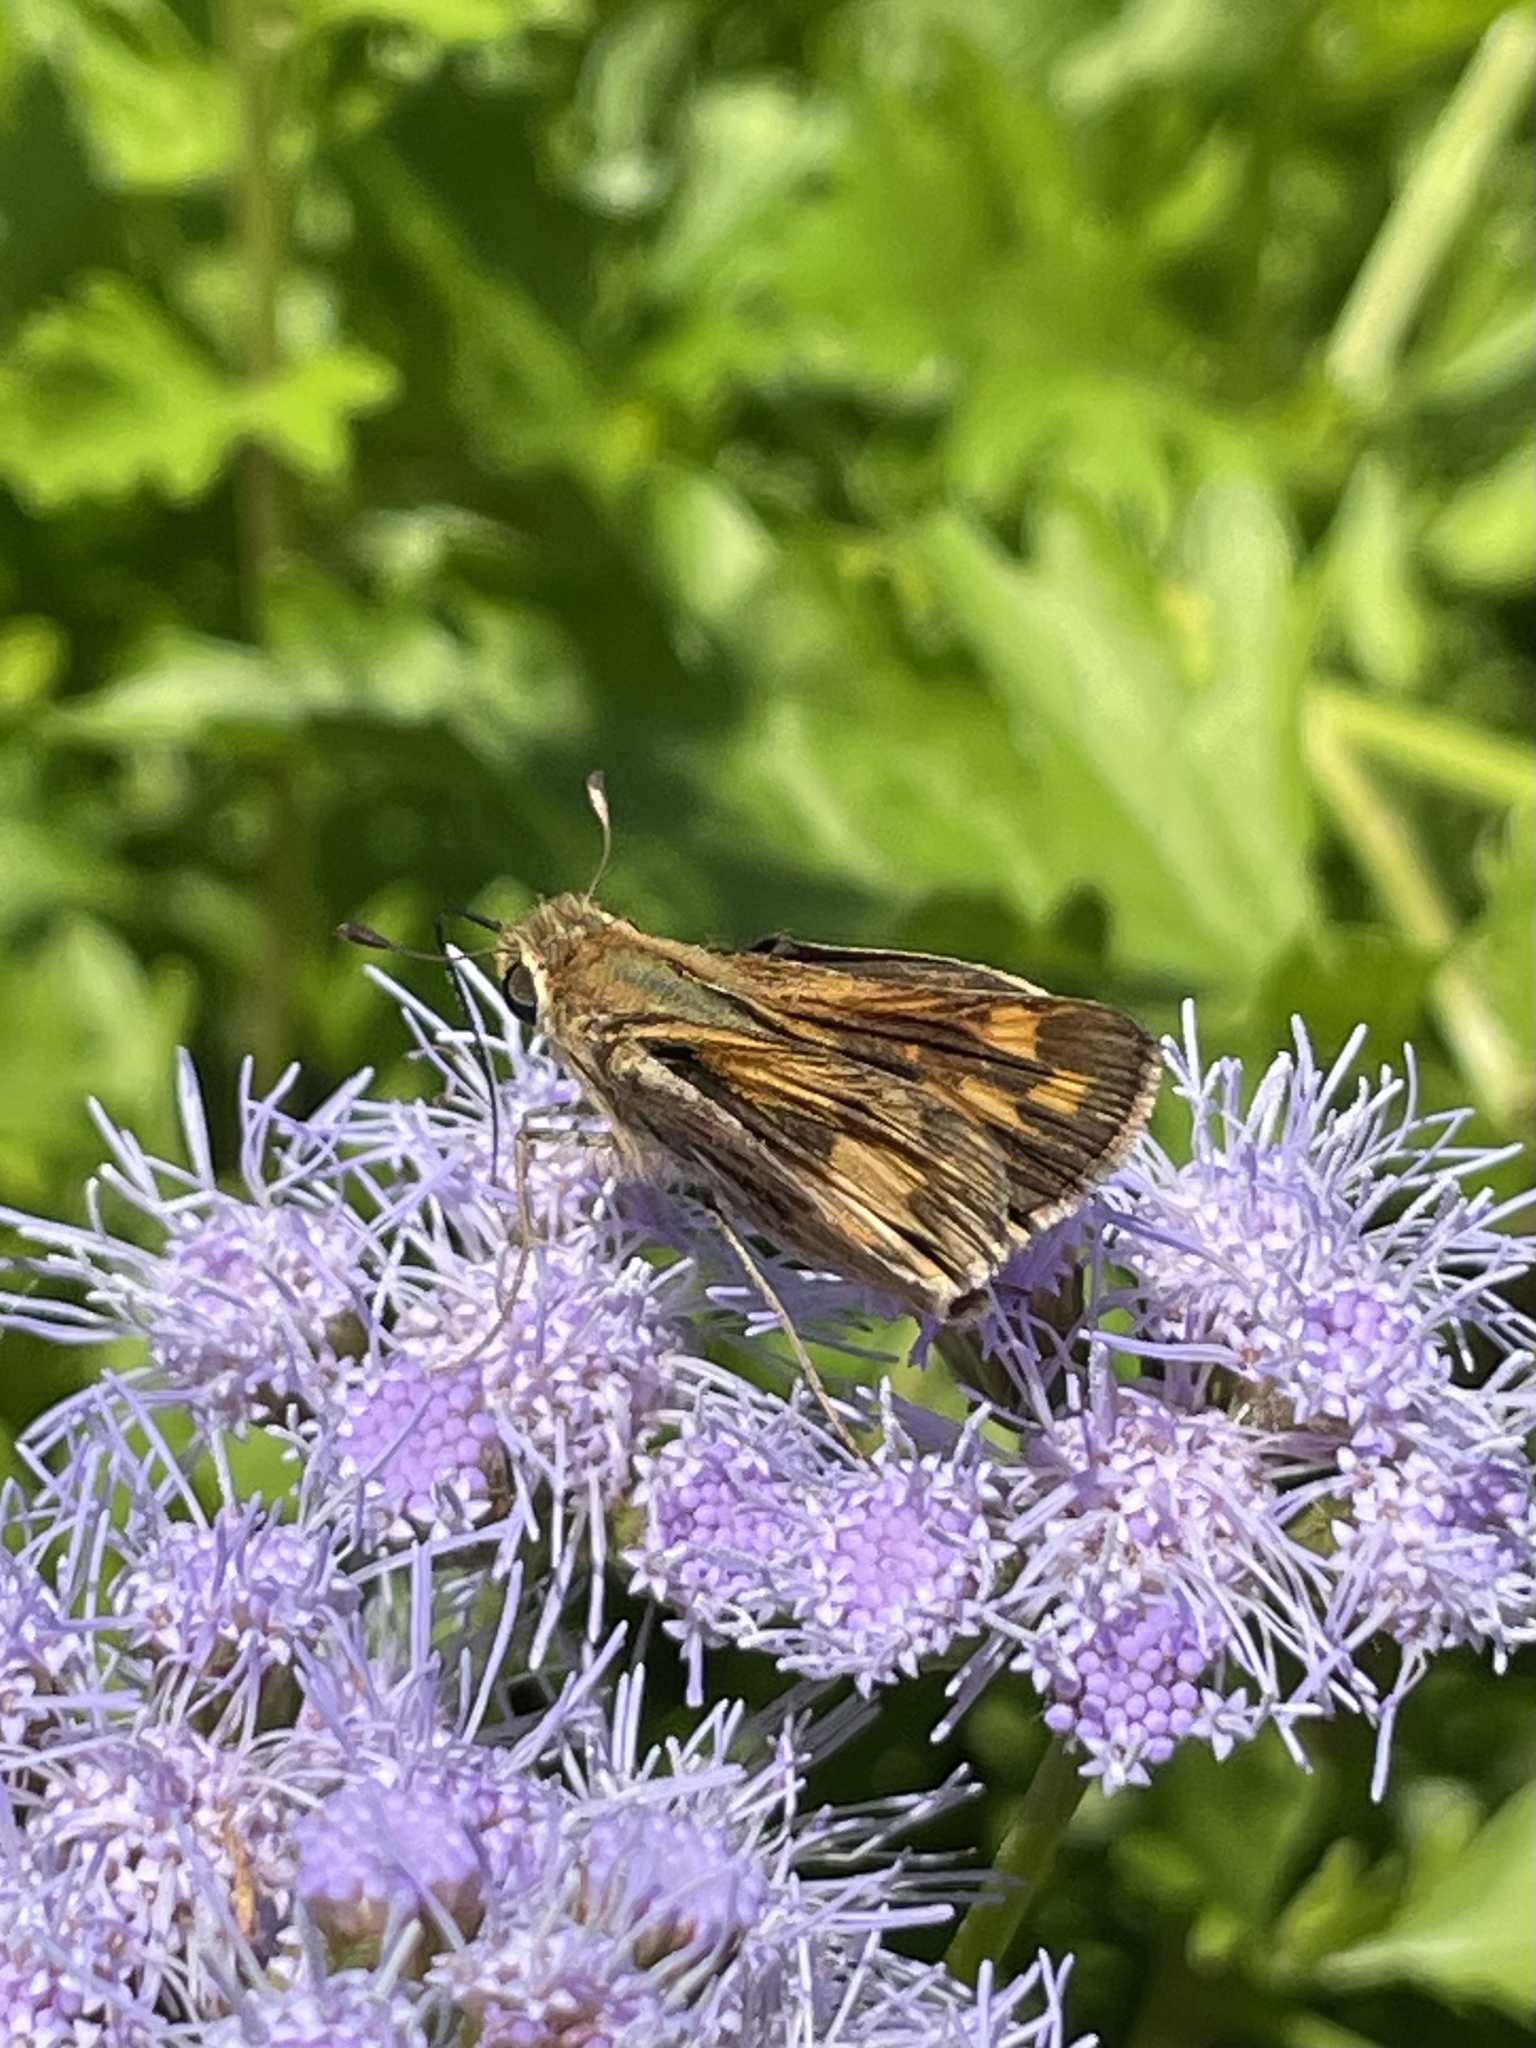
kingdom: Animalia
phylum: Arthropoda
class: Insecta
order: Lepidoptera
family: Hesperiidae
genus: Hylephila
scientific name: Hylephila phyleus
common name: Fiery skipper
